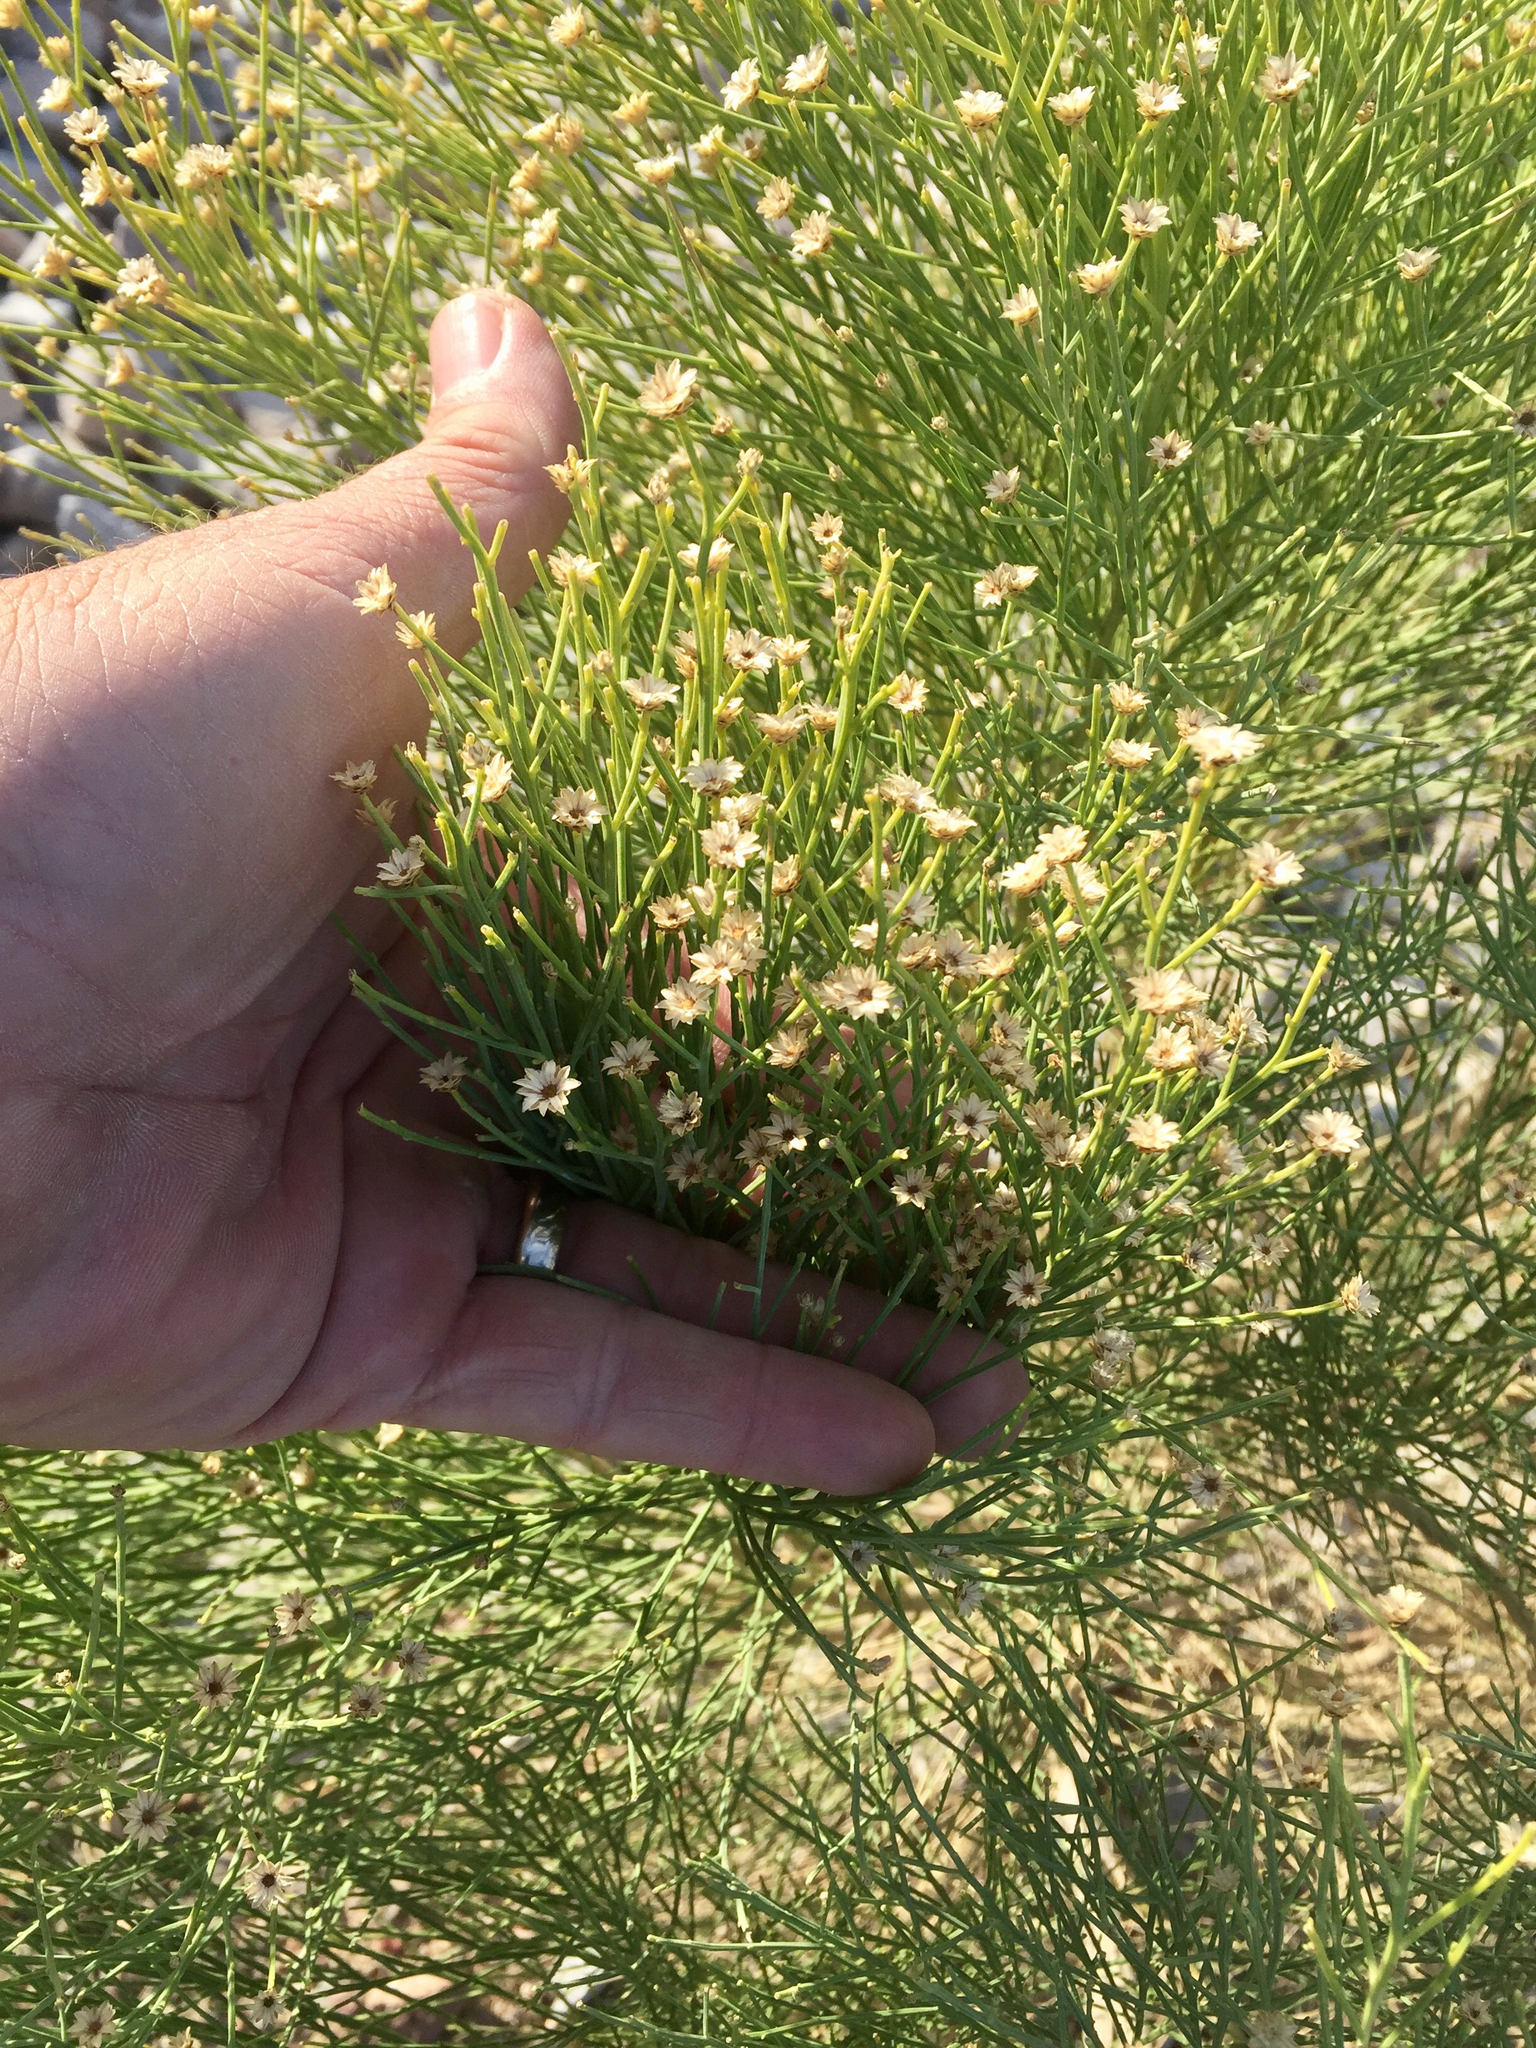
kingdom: Plantae
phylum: Tracheophyta
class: Magnoliopsida
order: Asterales
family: Asteraceae
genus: Baccharis
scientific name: Baccharis sarothroides
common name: Desert-broom
